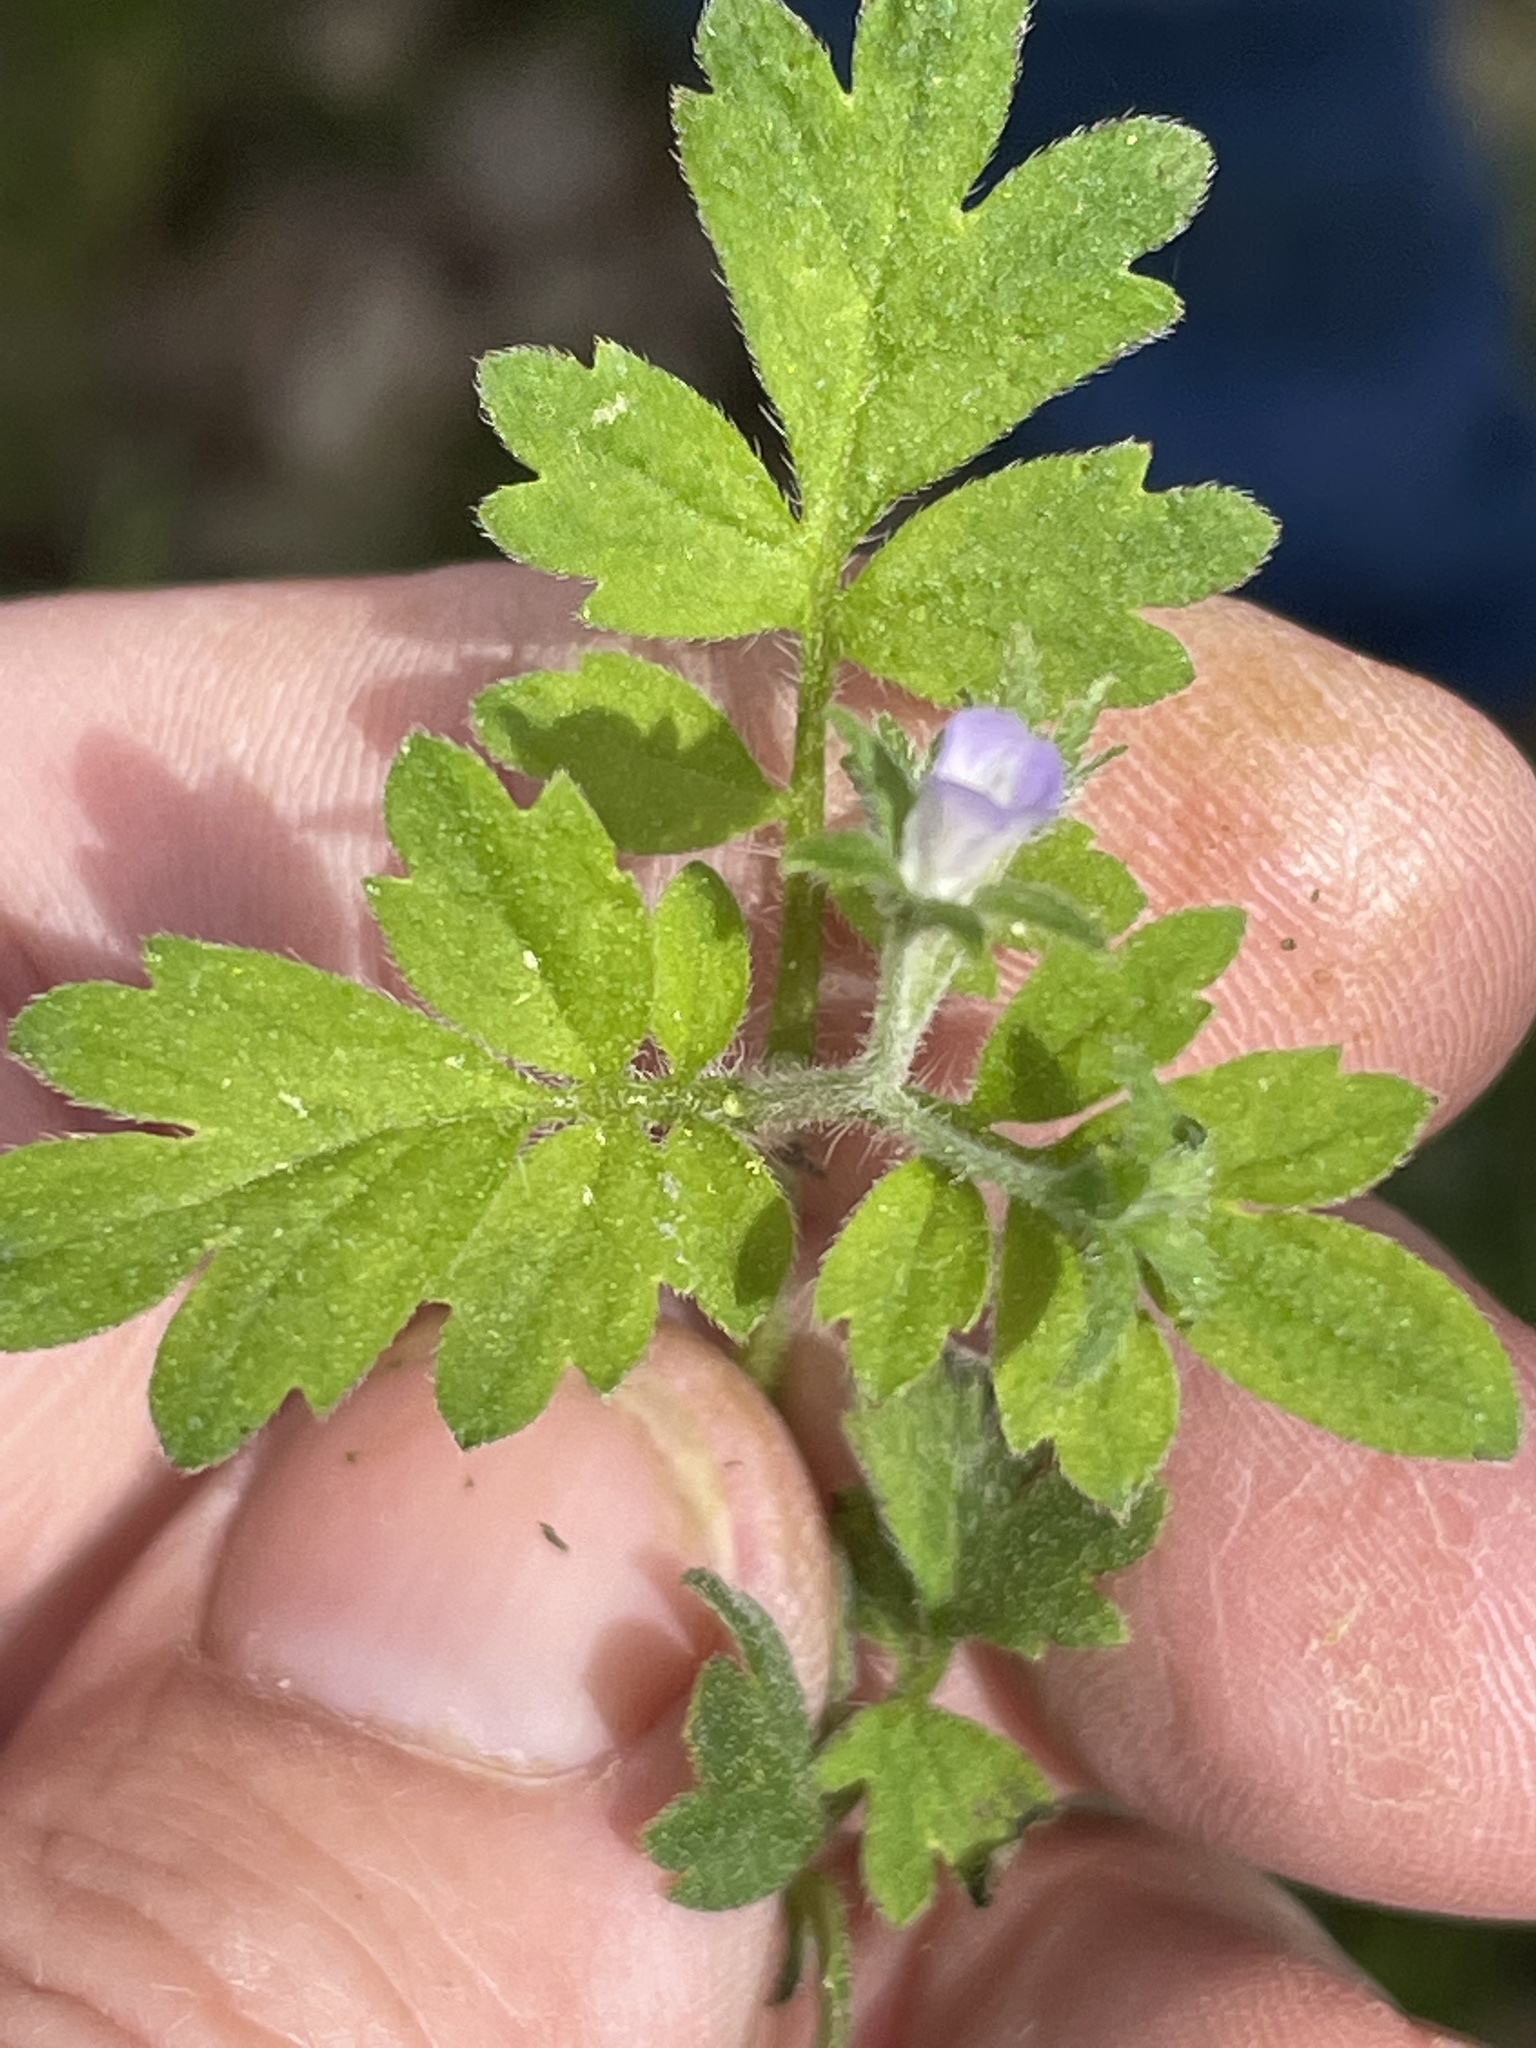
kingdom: Plantae
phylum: Tracheophyta
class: Magnoliopsida
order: Boraginales
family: Hydrophyllaceae
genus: Phacelia
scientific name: Phacelia covillei
